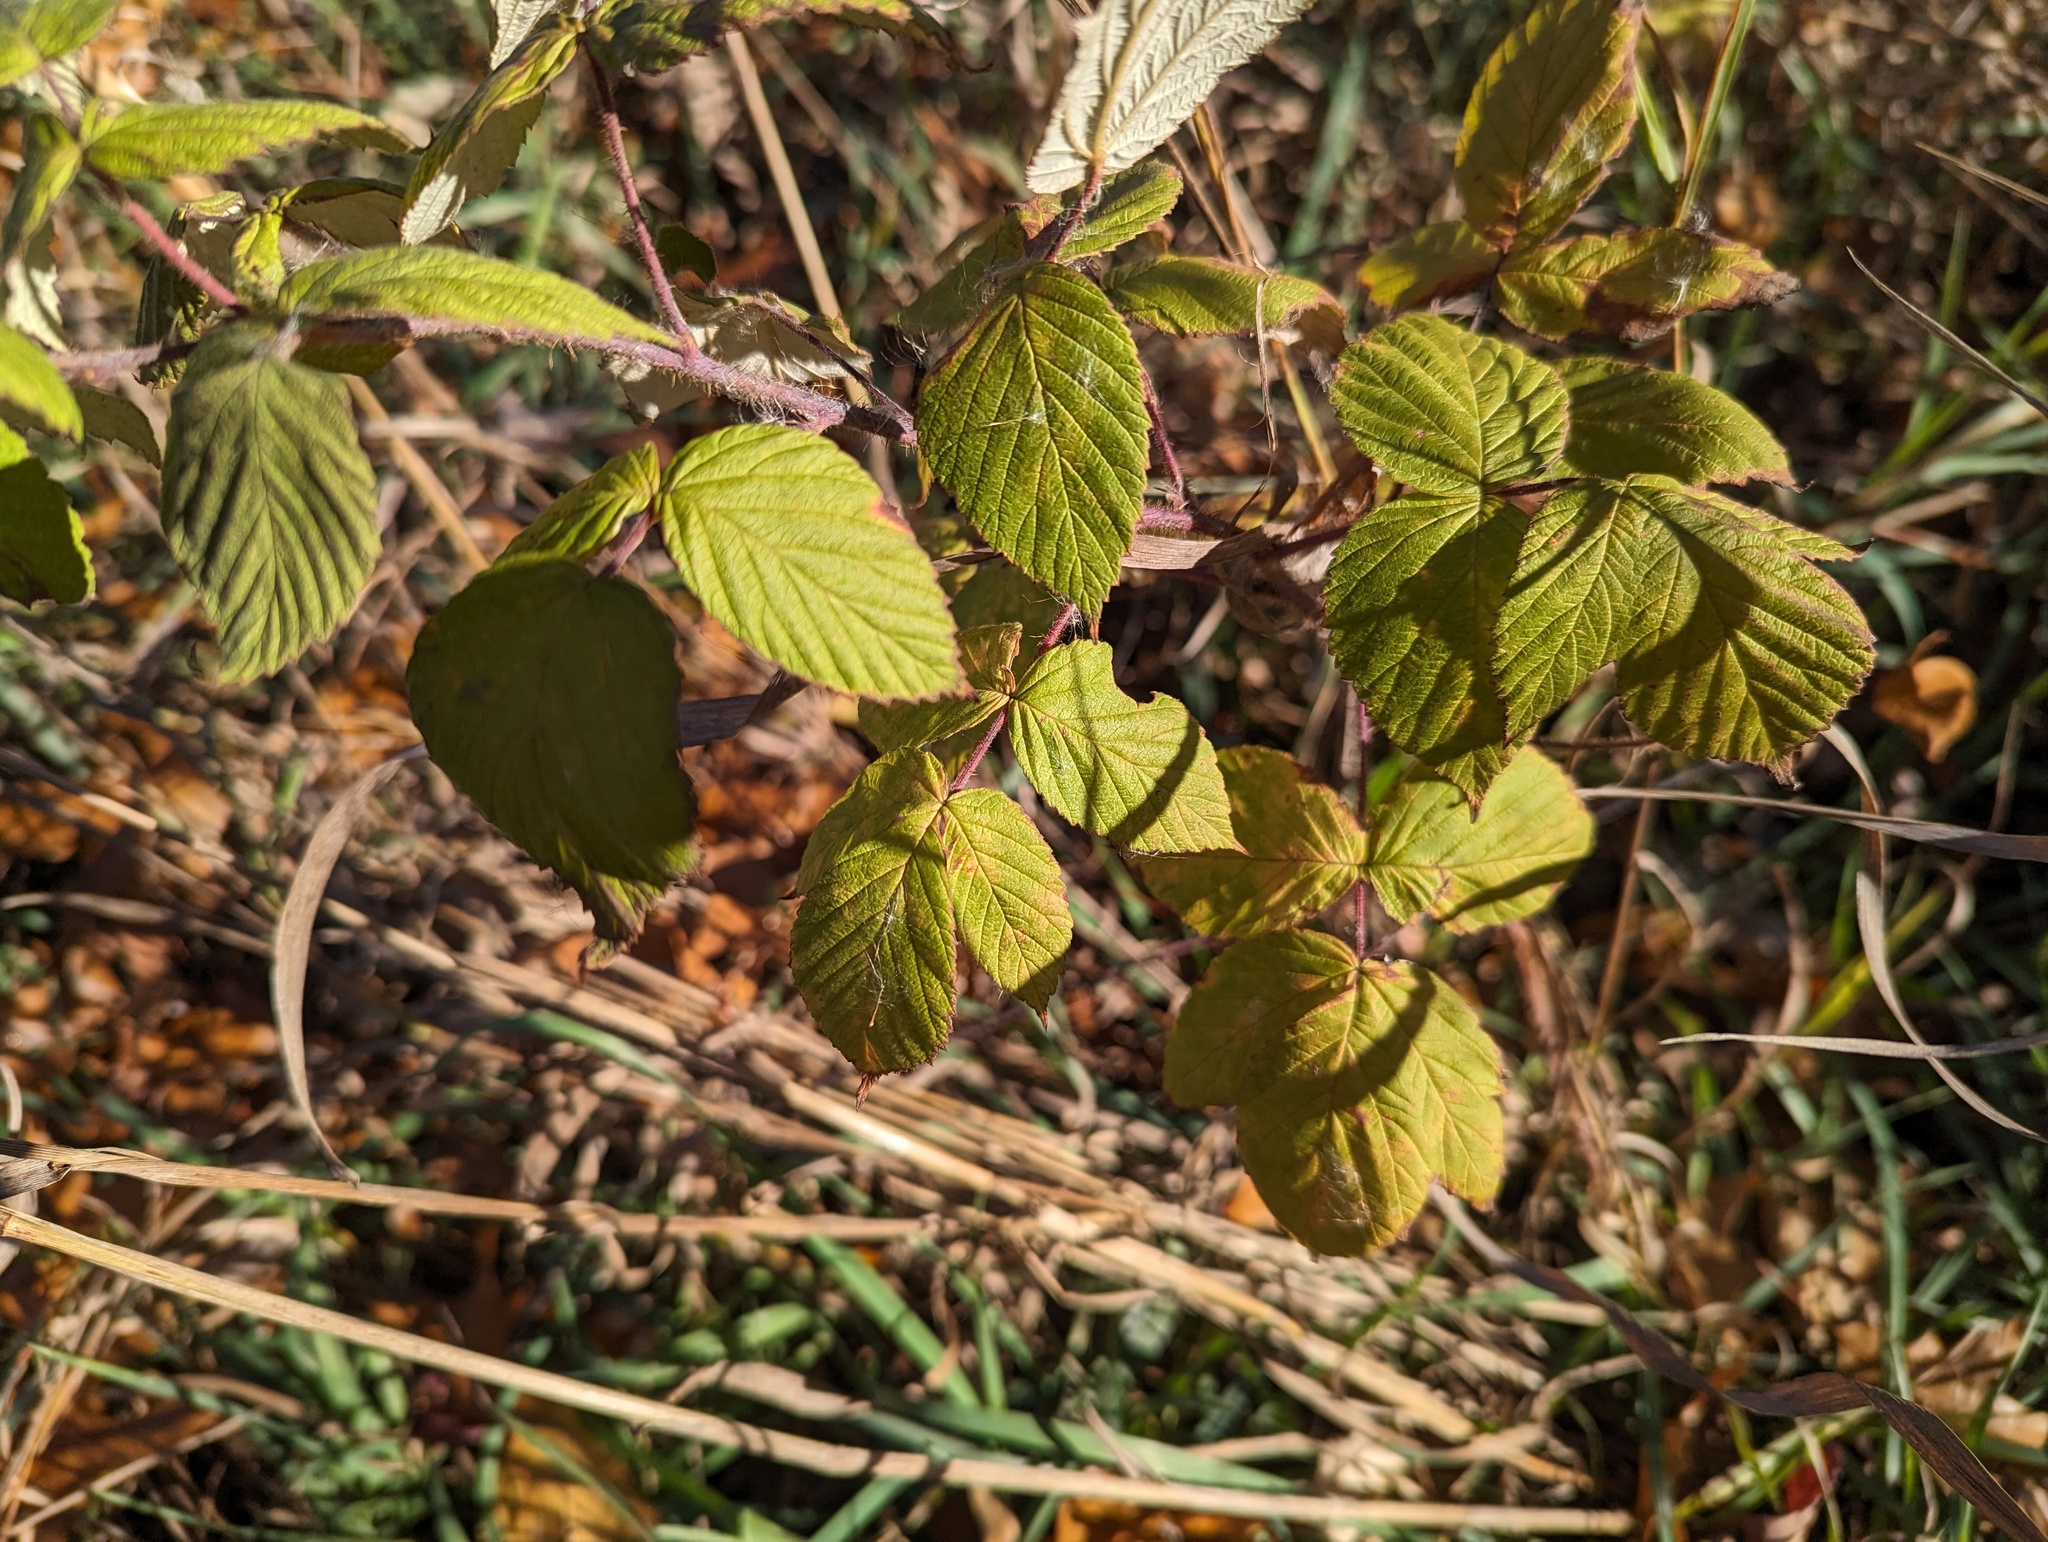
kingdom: Plantae
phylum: Tracheophyta
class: Magnoliopsida
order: Rosales
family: Rosaceae
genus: Rubus
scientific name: Rubus idaeus
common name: Raspberry
